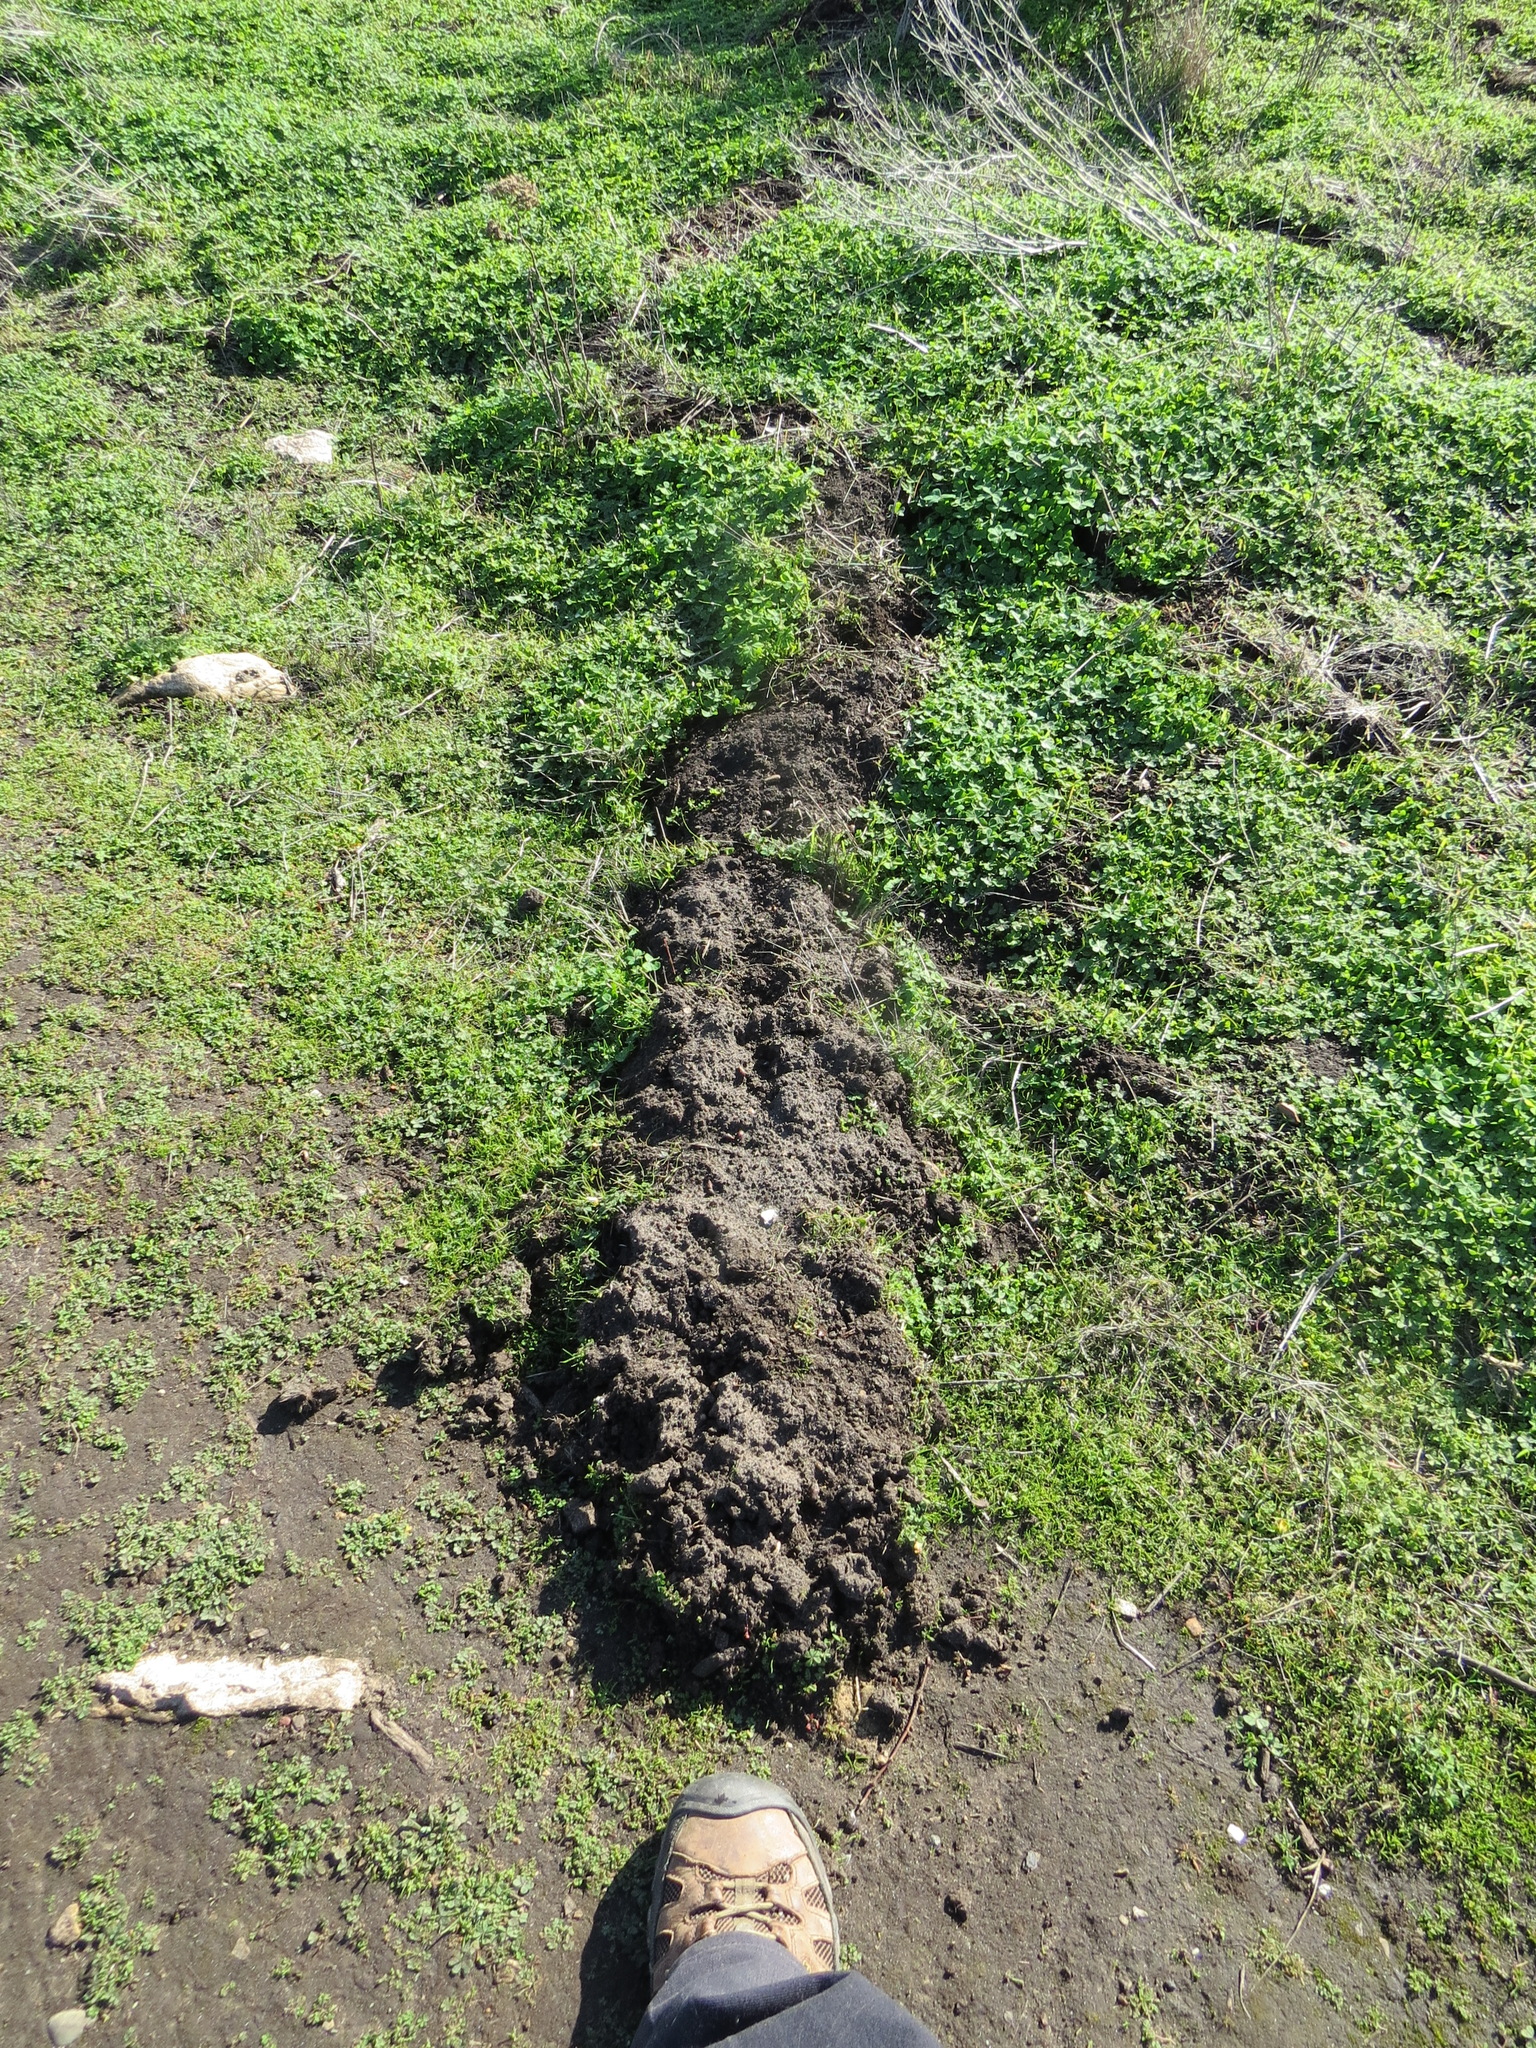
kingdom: Animalia
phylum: Chordata
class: Mammalia
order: Soricomorpha
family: Talpidae
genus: Scapanus
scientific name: Scapanus latimanus
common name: Broad-footed mole
